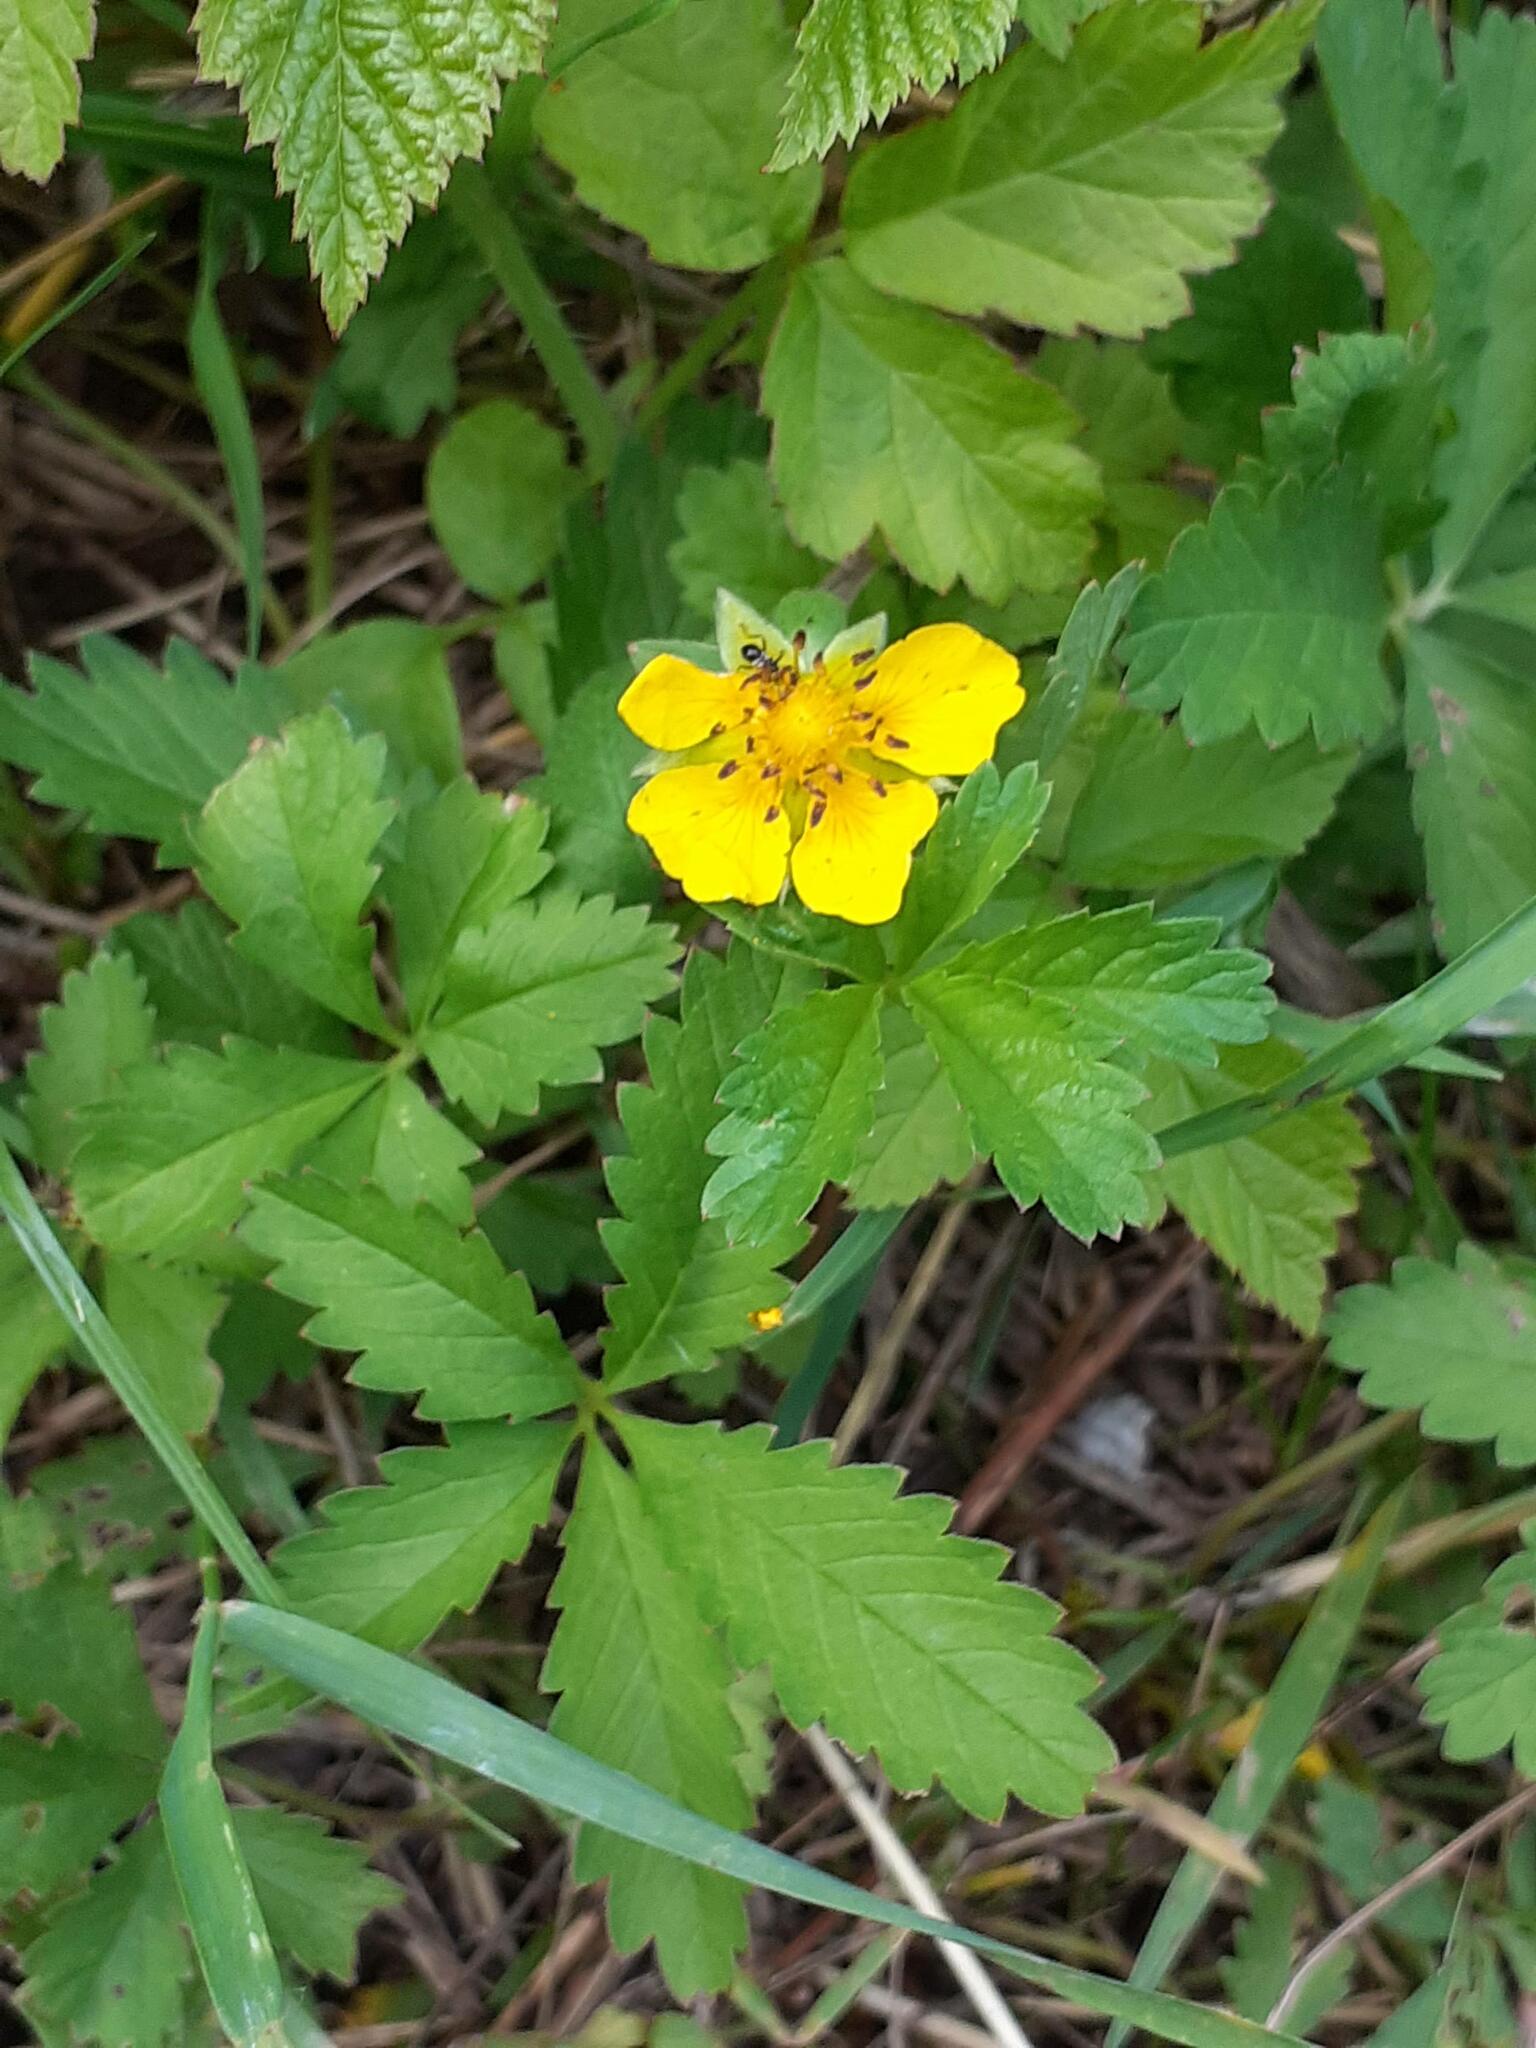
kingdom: Plantae
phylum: Tracheophyta
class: Magnoliopsida
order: Rosales
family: Rosaceae
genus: Potentilla
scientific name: Potentilla reptans
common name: Creeping cinquefoil
